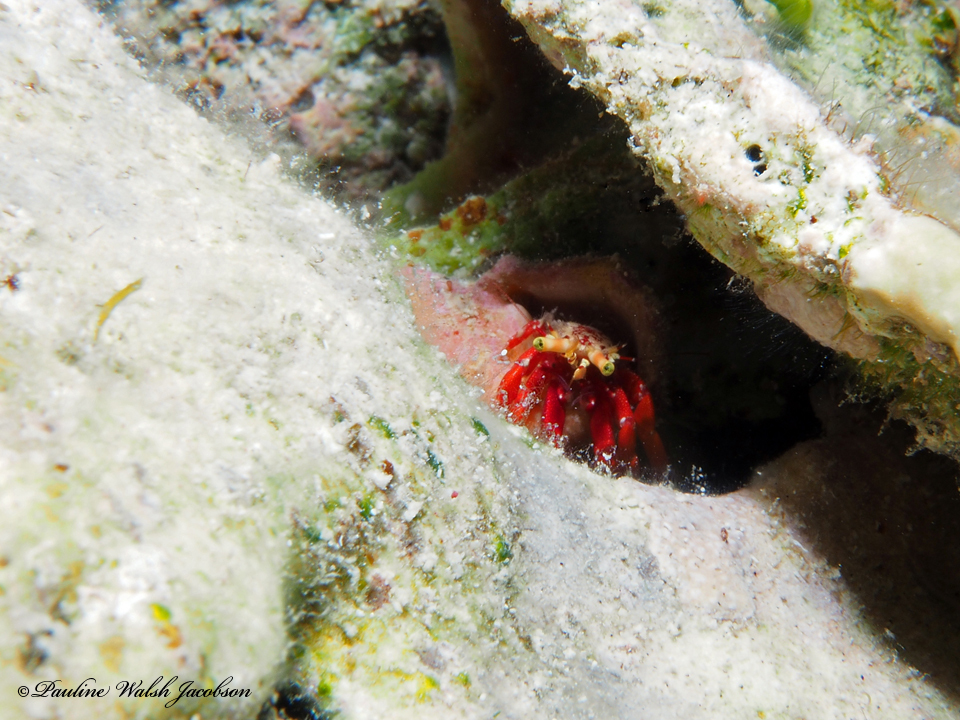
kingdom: Animalia
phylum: Arthropoda
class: Malacostraca
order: Decapoda
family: Diogenidae
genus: Paguristes
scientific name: Paguristes cadenati
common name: Red reef hermit
